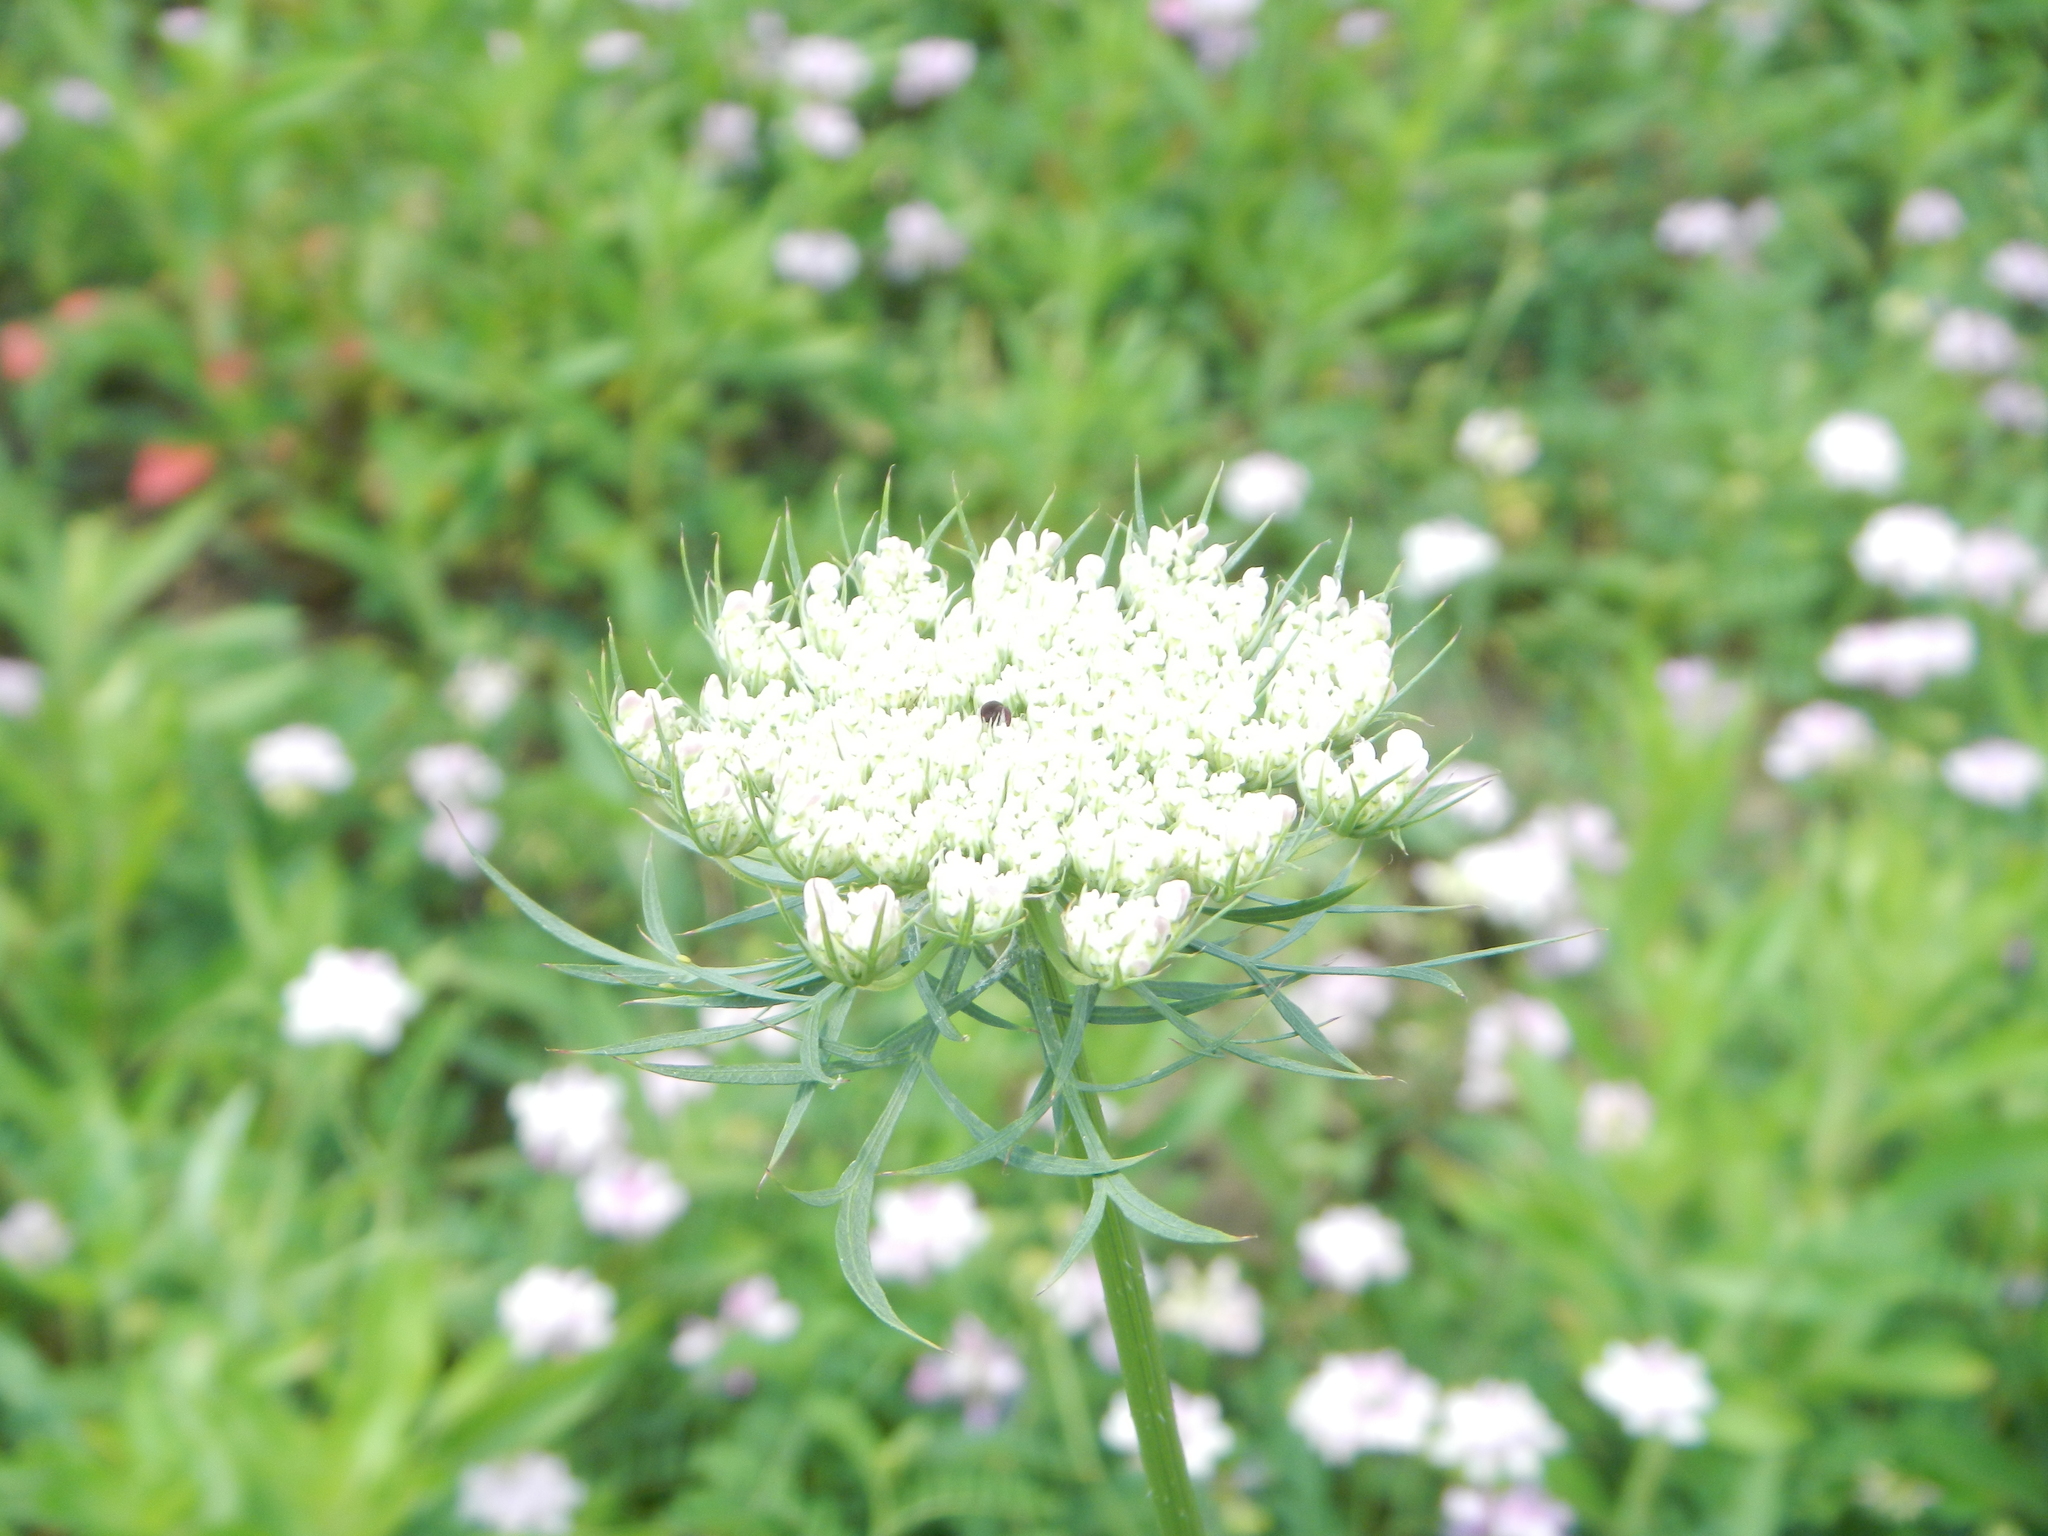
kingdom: Plantae
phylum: Tracheophyta
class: Magnoliopsida
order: Apiales
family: Apiaceae
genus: Daucus
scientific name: Daucus carota
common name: Wild carrot
